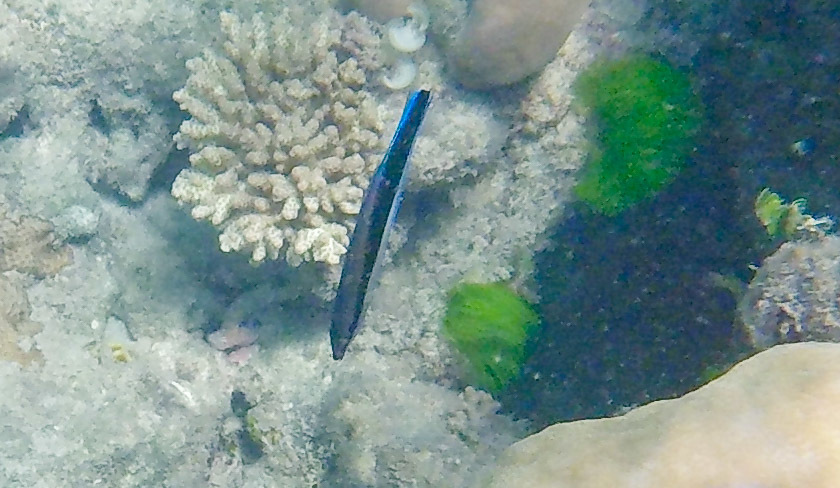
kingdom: Animalia
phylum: Chordata
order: Perciformes
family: Labridae
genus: Labroides
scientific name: Labroides dimidiatus
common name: Blue diesel wrasse
